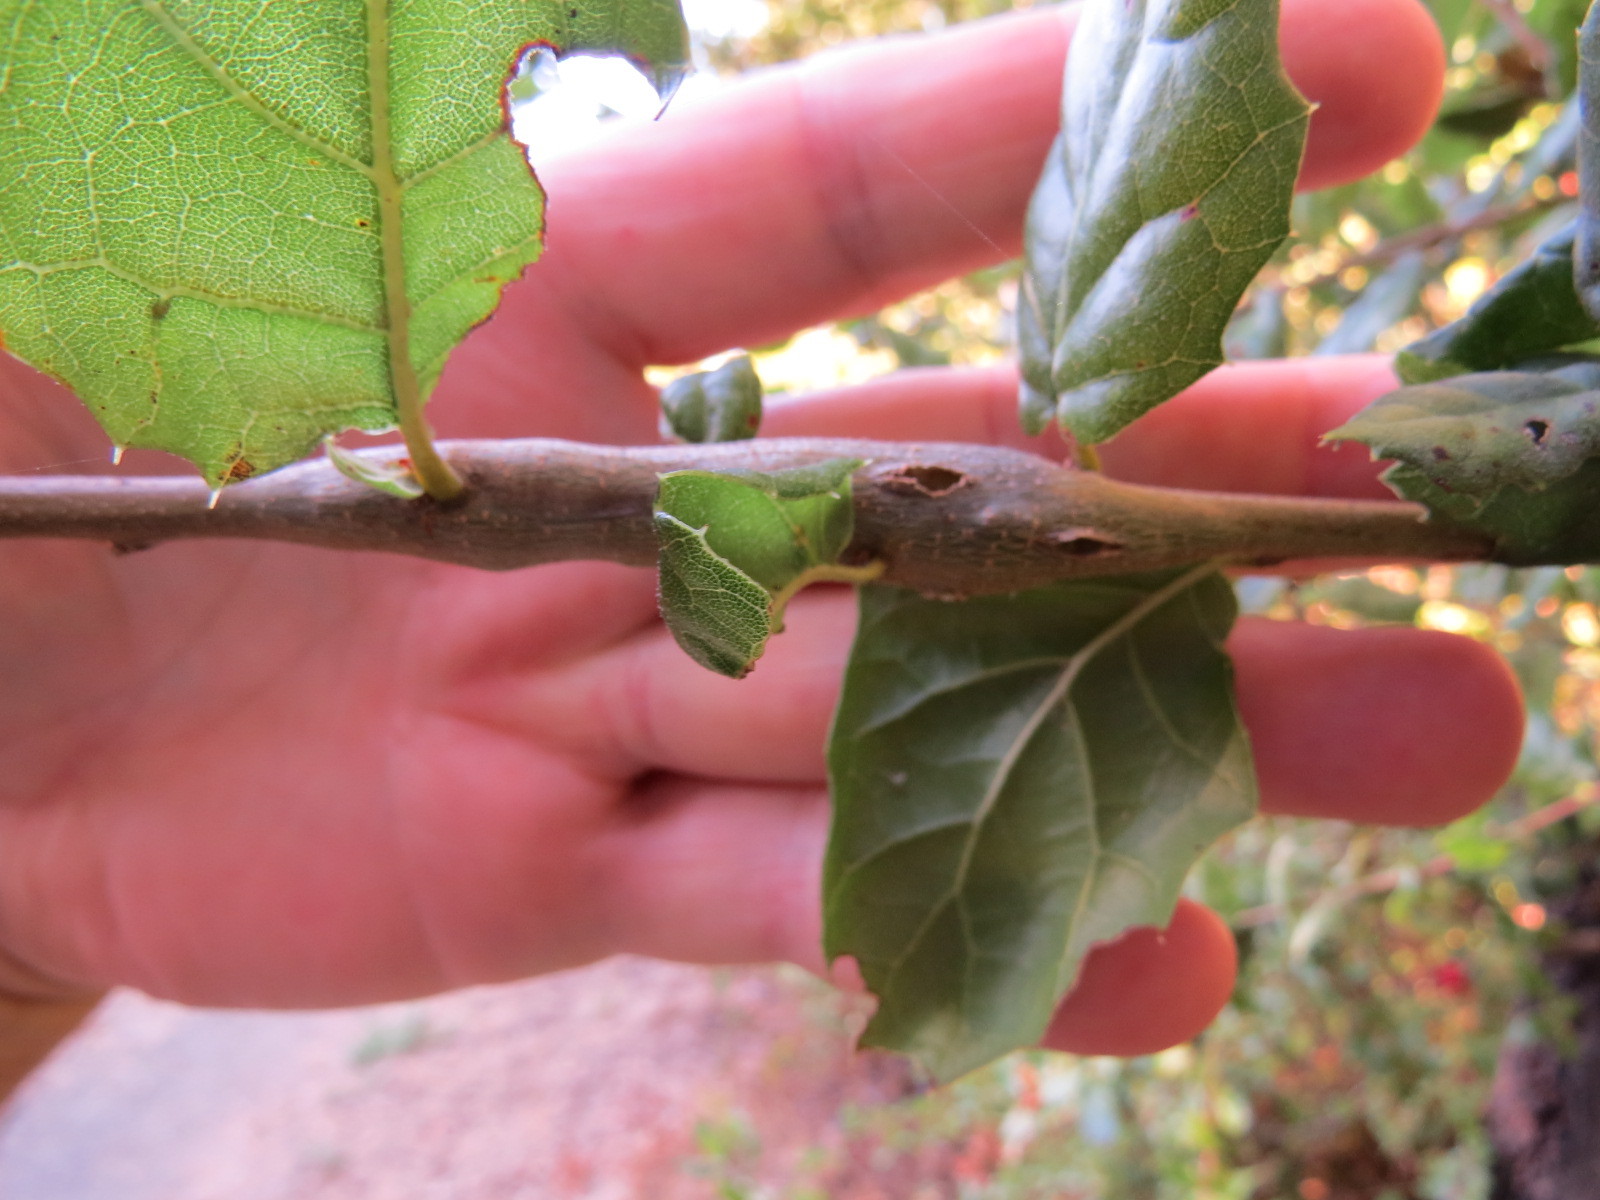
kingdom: Animalia
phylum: Arthropoda
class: Insecta
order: Hymenoptera
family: Cynipidae
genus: Callirhytis
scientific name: Callirhytis
